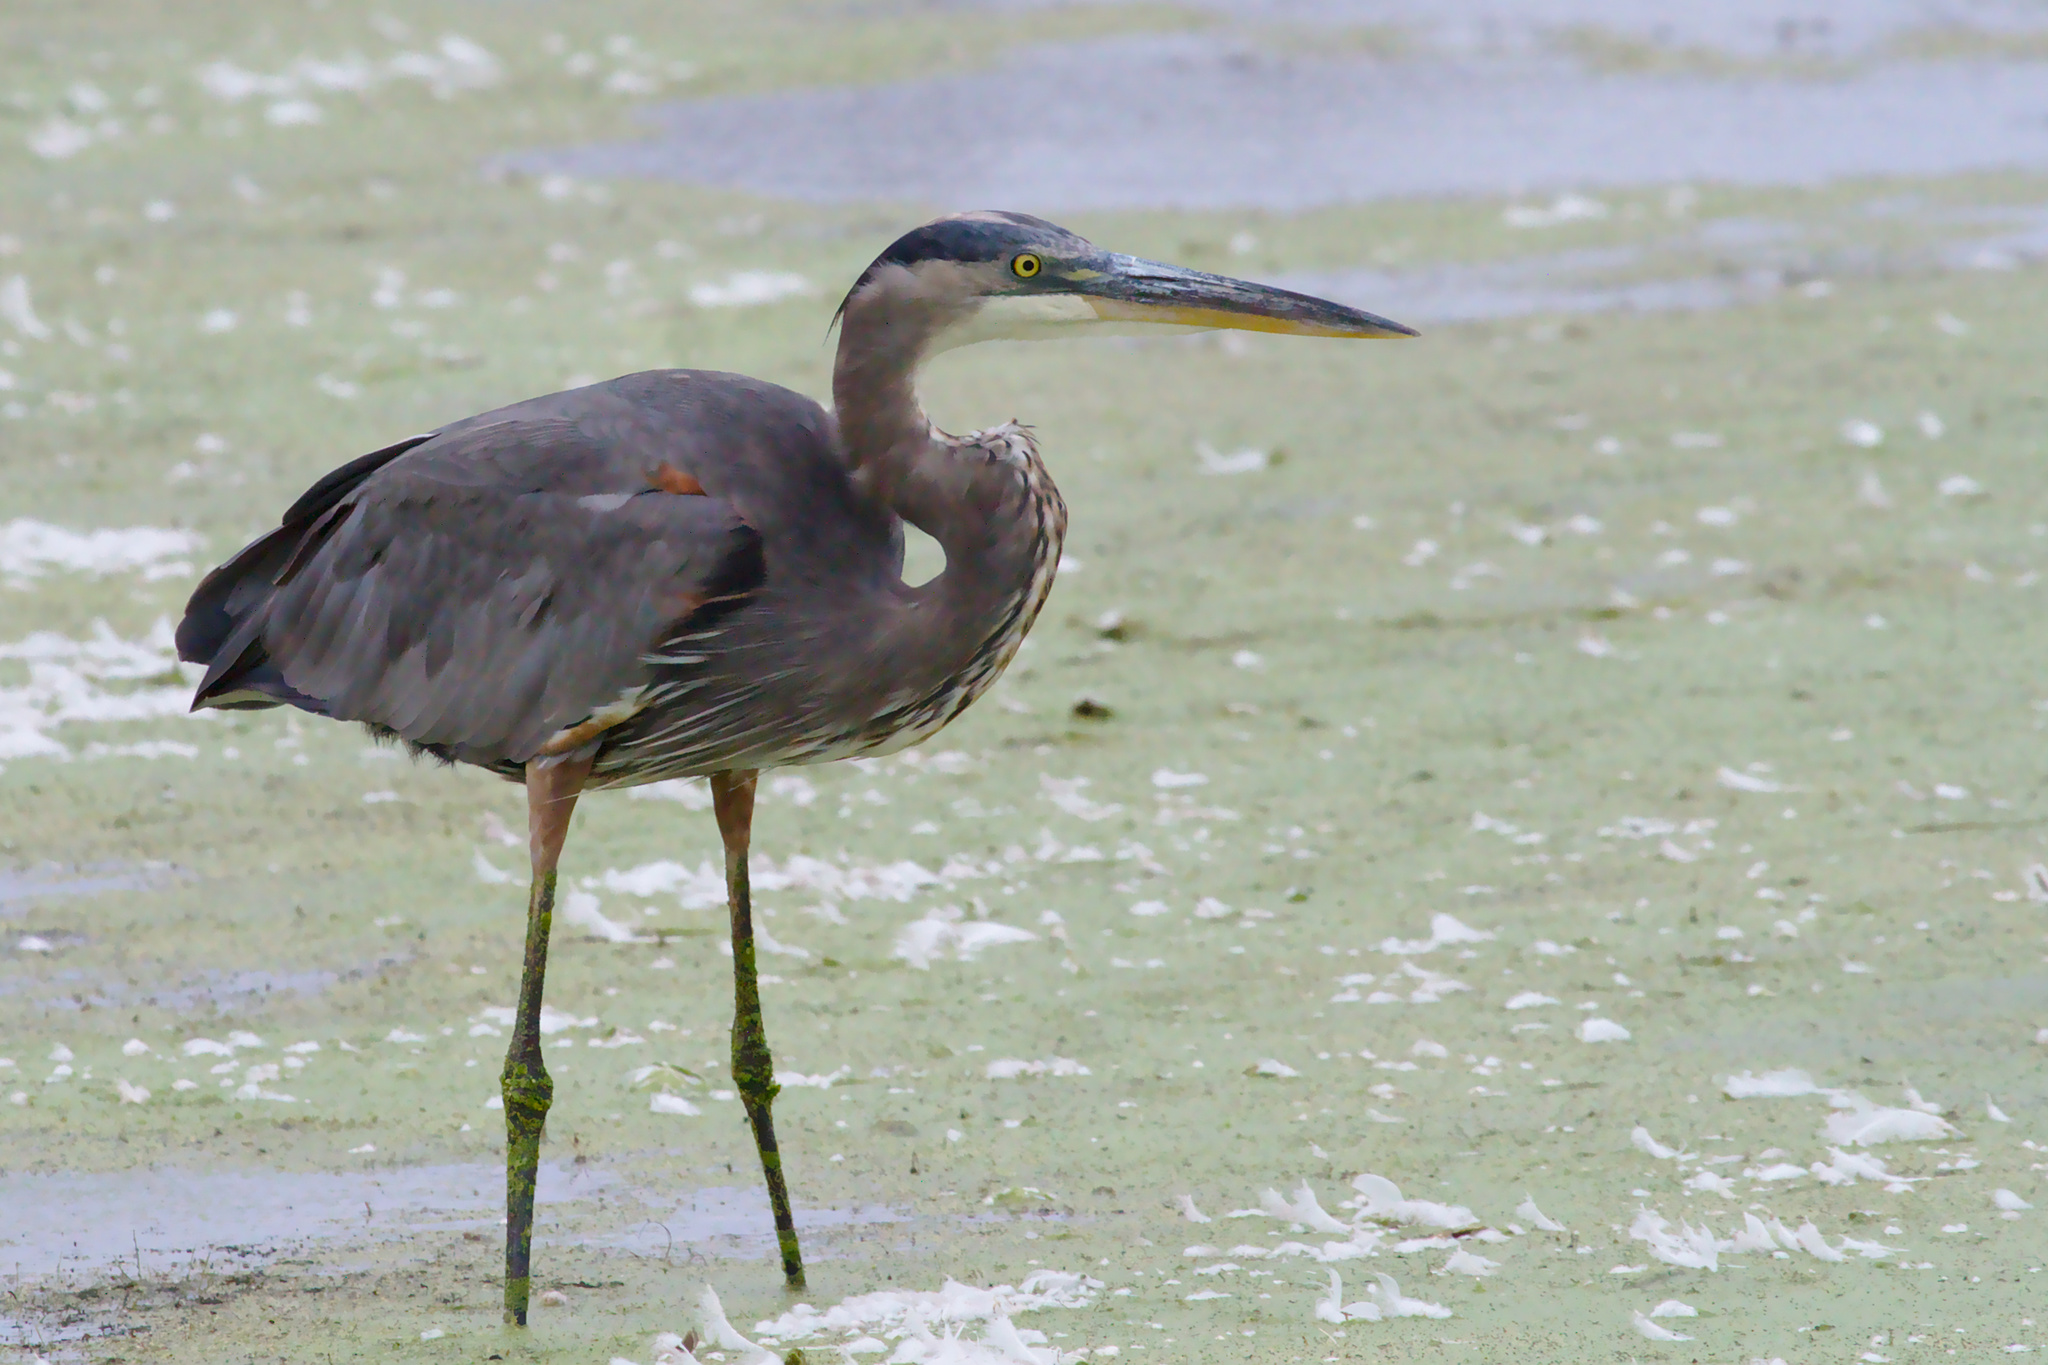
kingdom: Animalia
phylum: Chordata
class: Aves
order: Pelecaniformes
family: Ardeidae
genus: Ardea
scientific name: Ardea herodias
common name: Great blue heron
